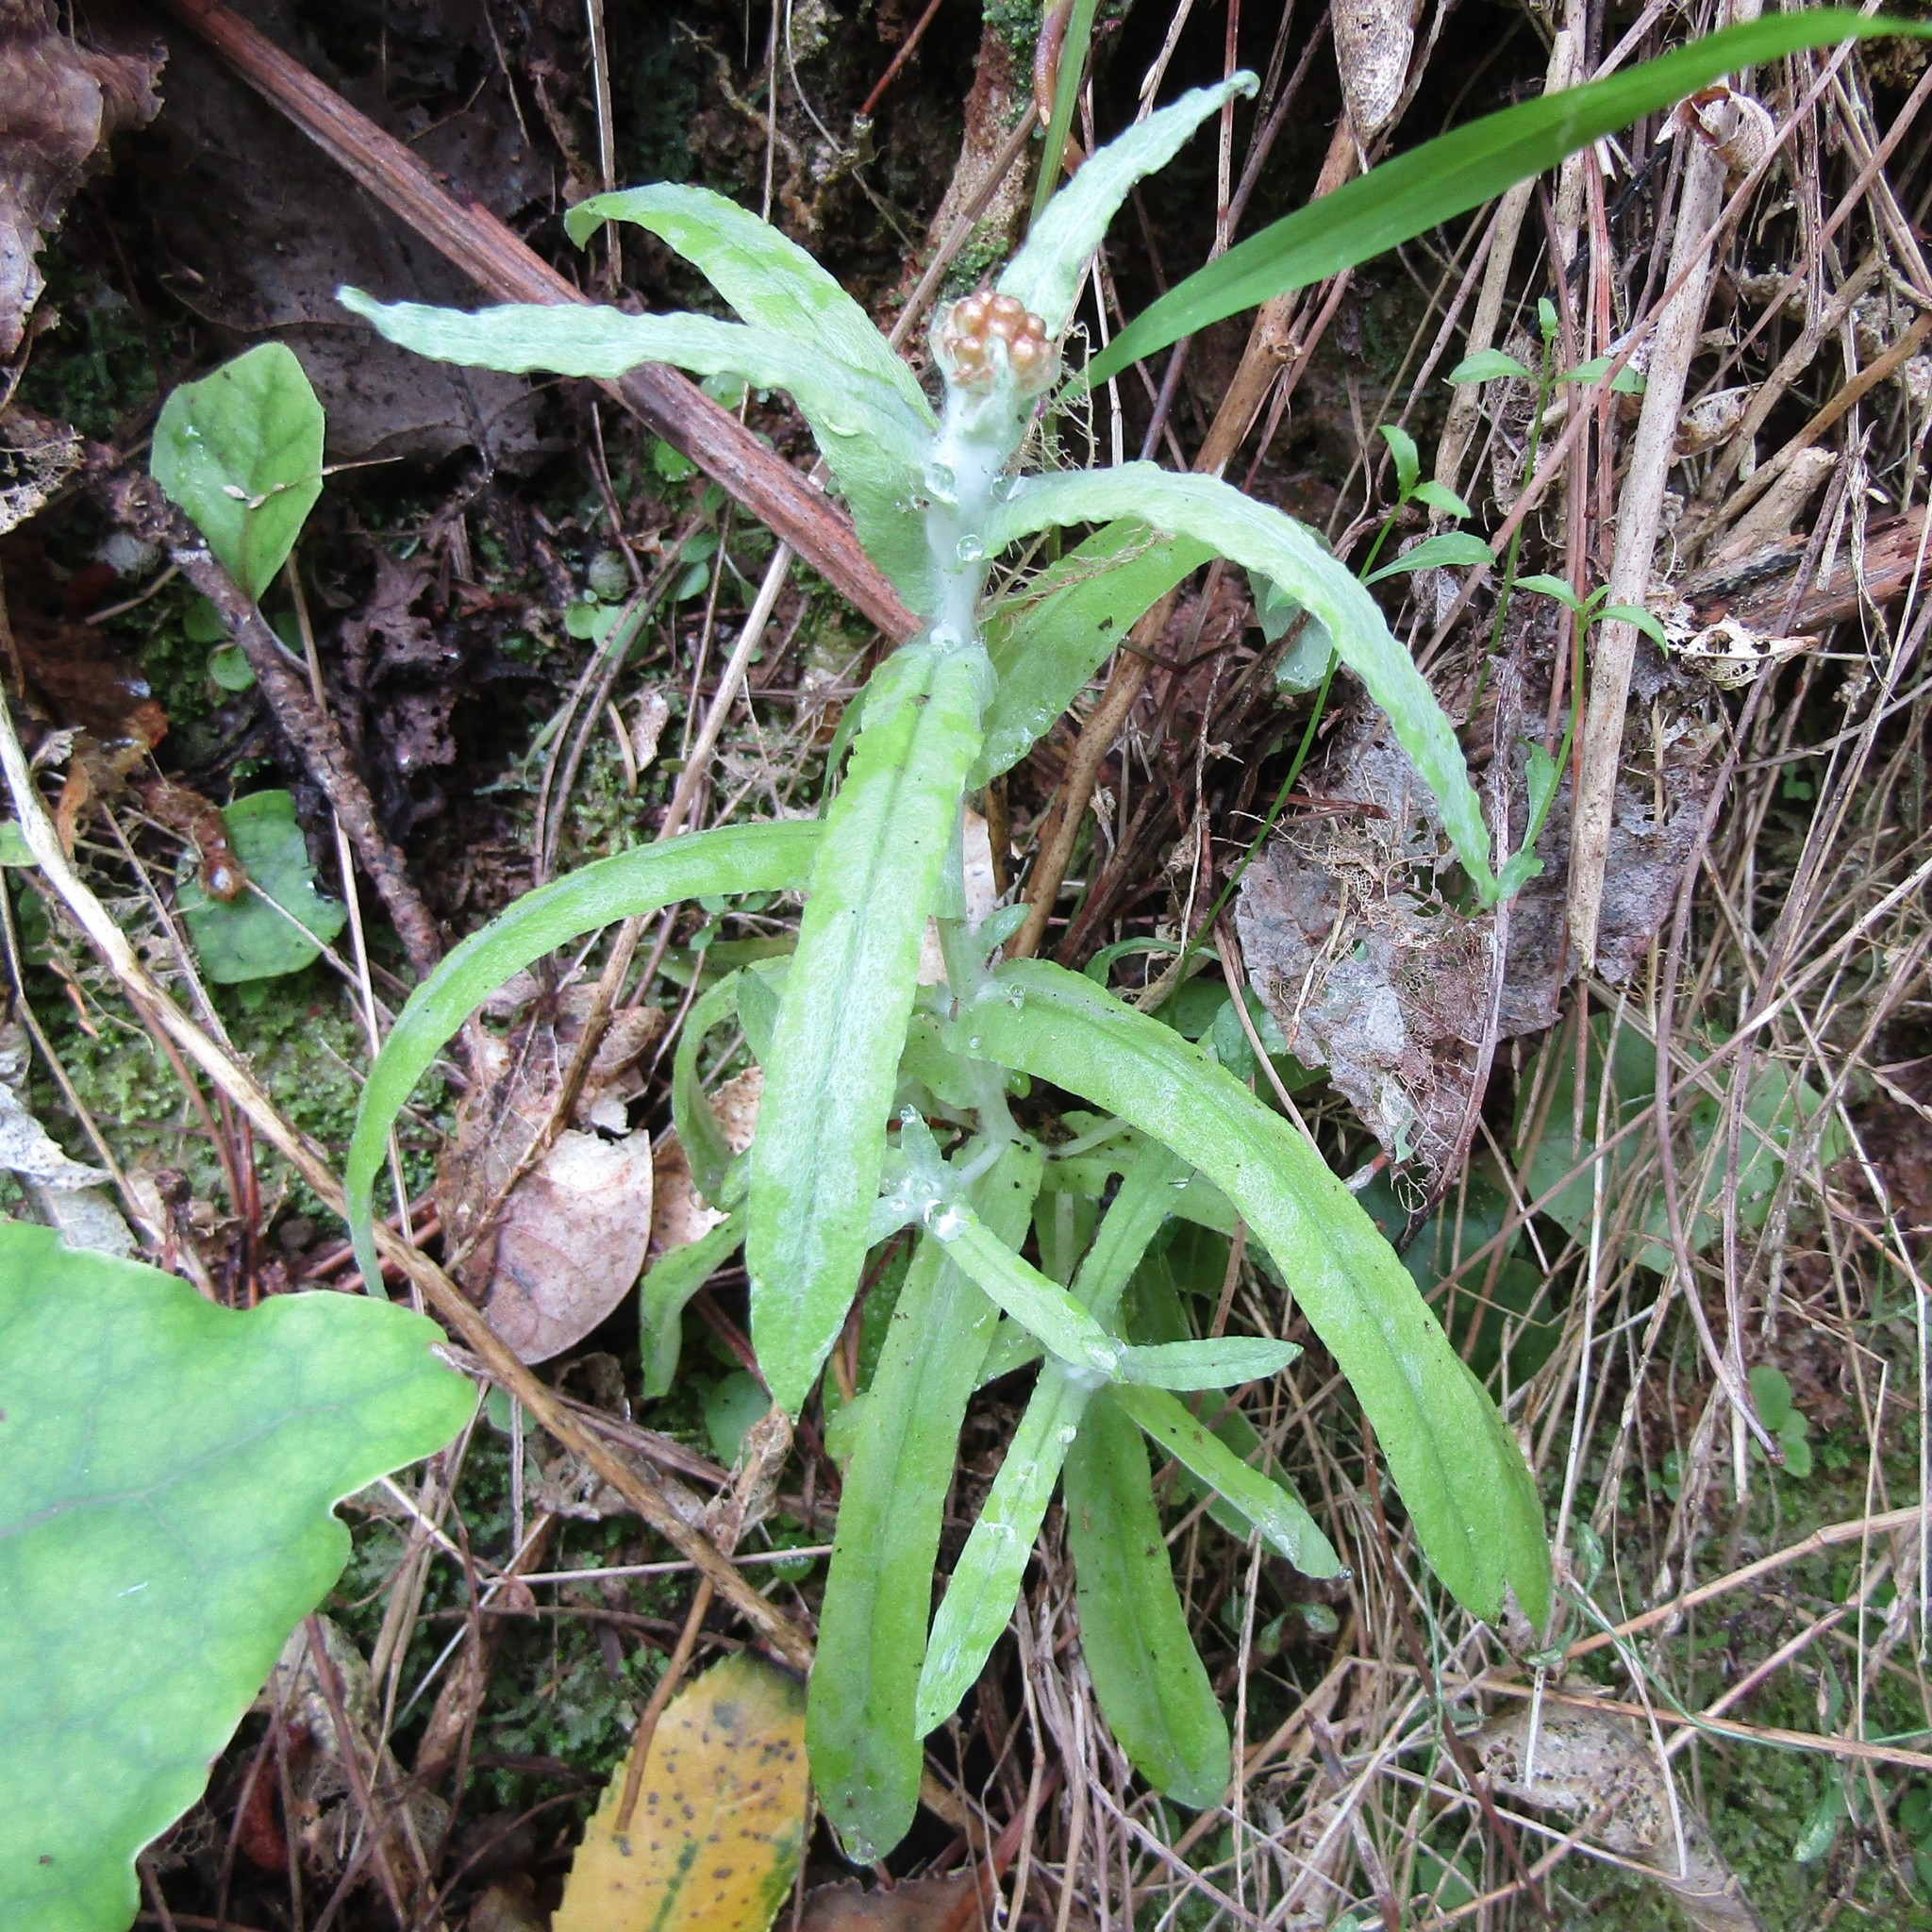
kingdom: Plantae
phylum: Tracheophyta
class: Magnoliopsida
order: Asterales
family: Asteraceae
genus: Helichrysum
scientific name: Helichrysum luteoalbum
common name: Daisy
